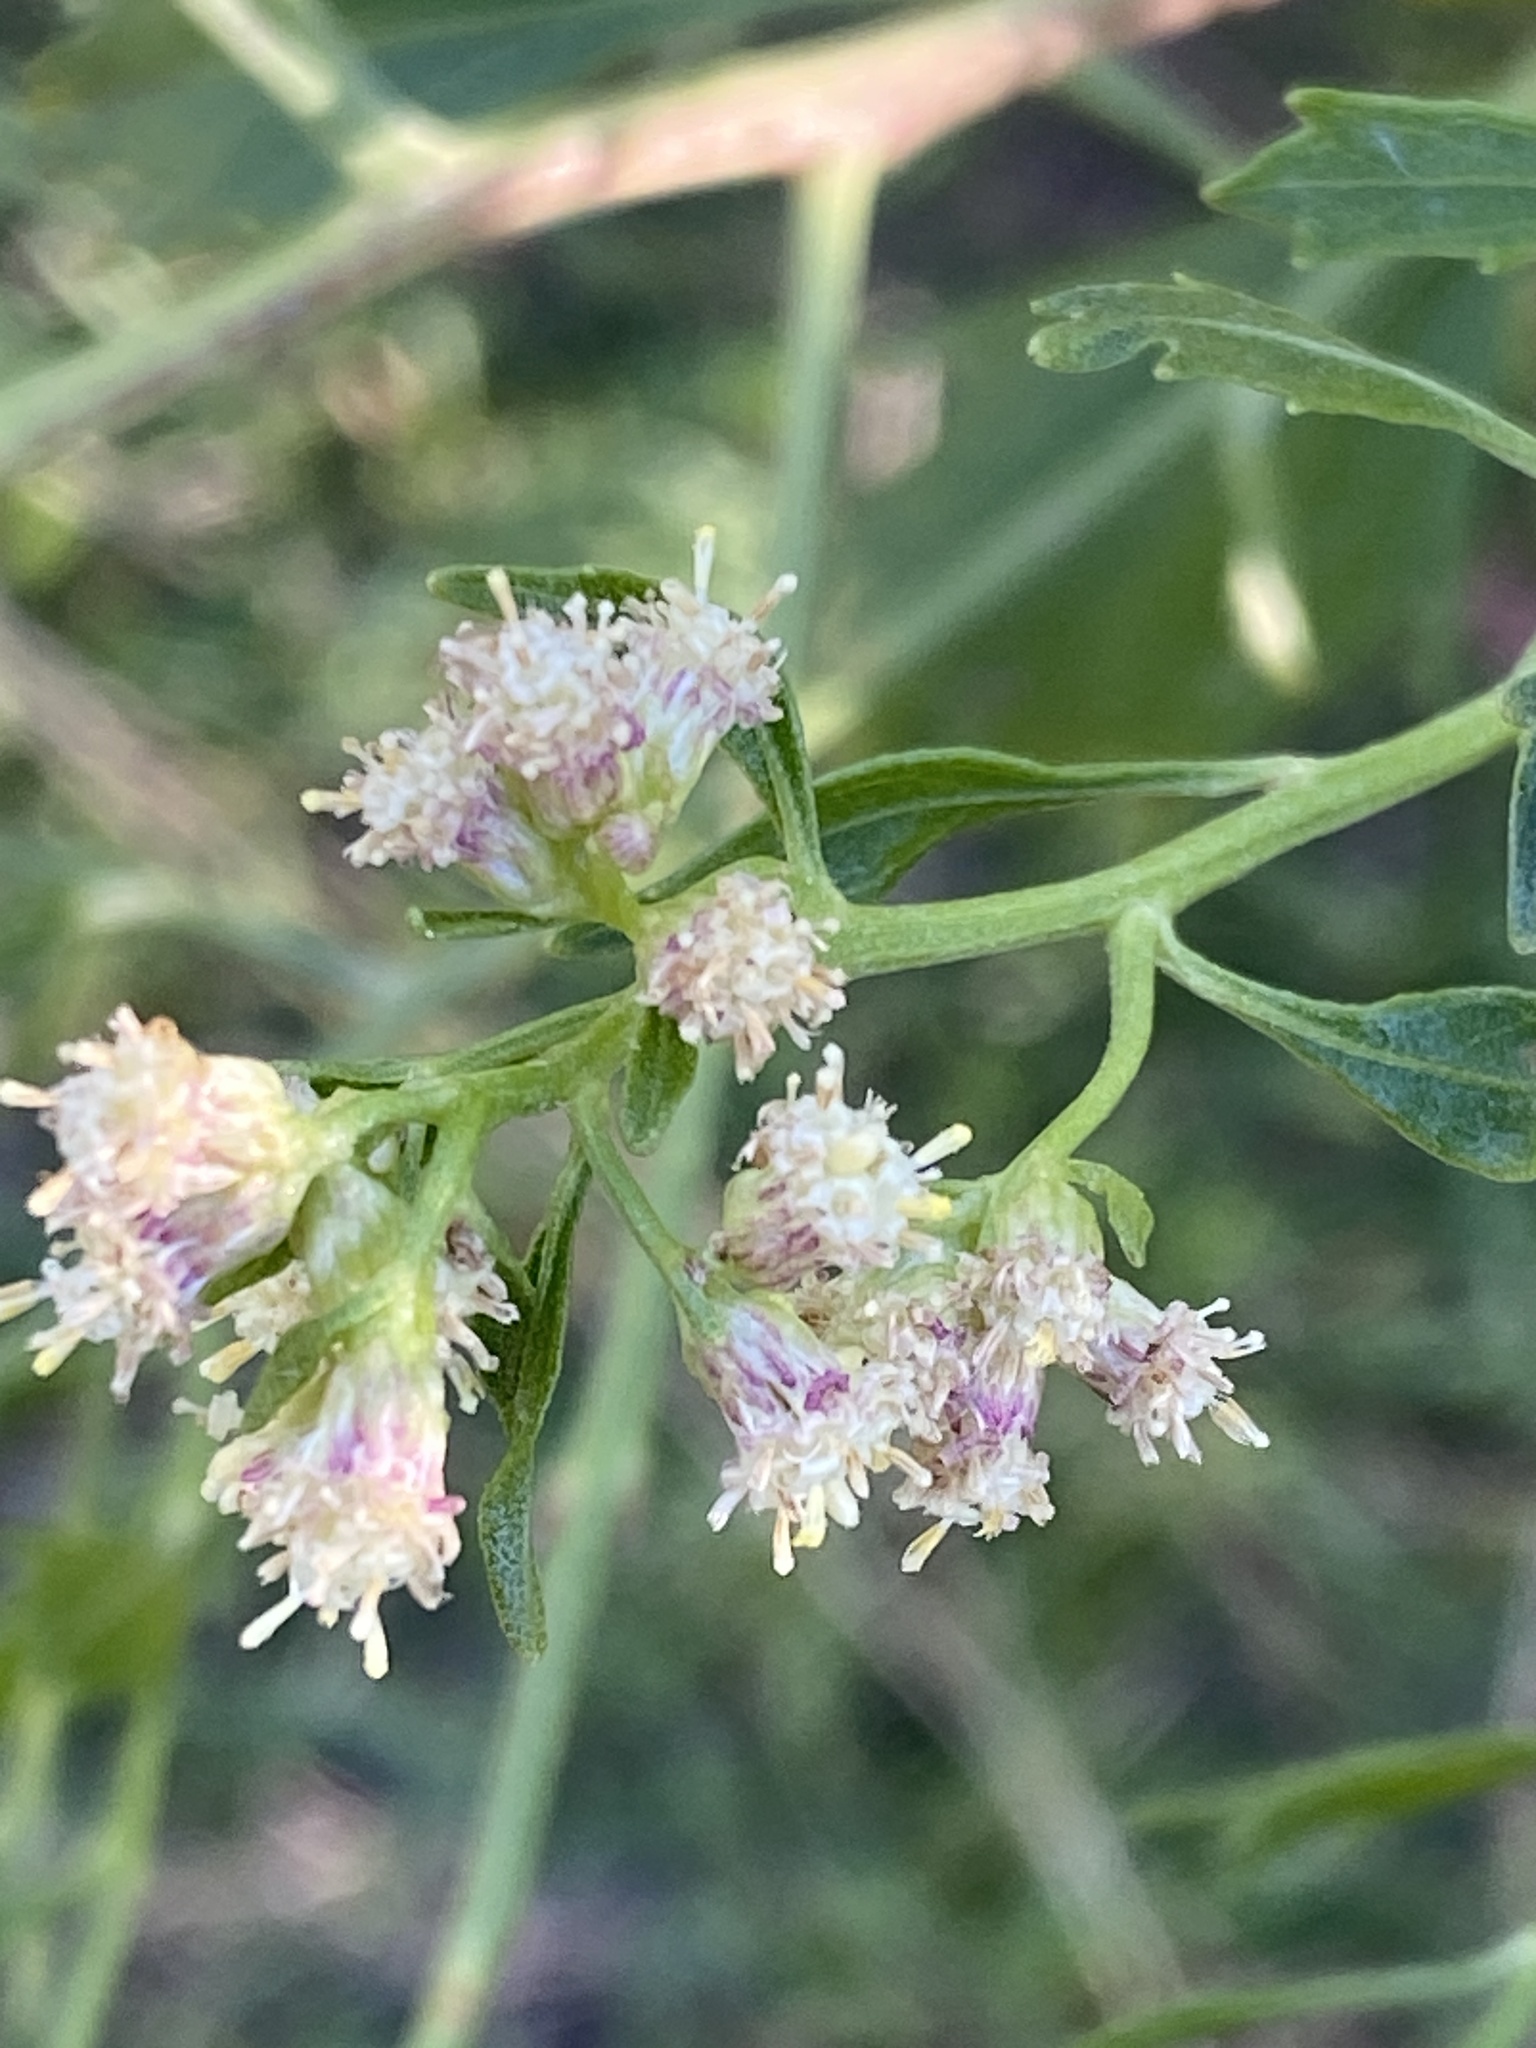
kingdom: Plantae
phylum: Tracheophyta
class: Magnoliopsida
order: Asterales
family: Asteraceae
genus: Baccharis
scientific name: Baccharis halimifolia
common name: Eastern baccharis
